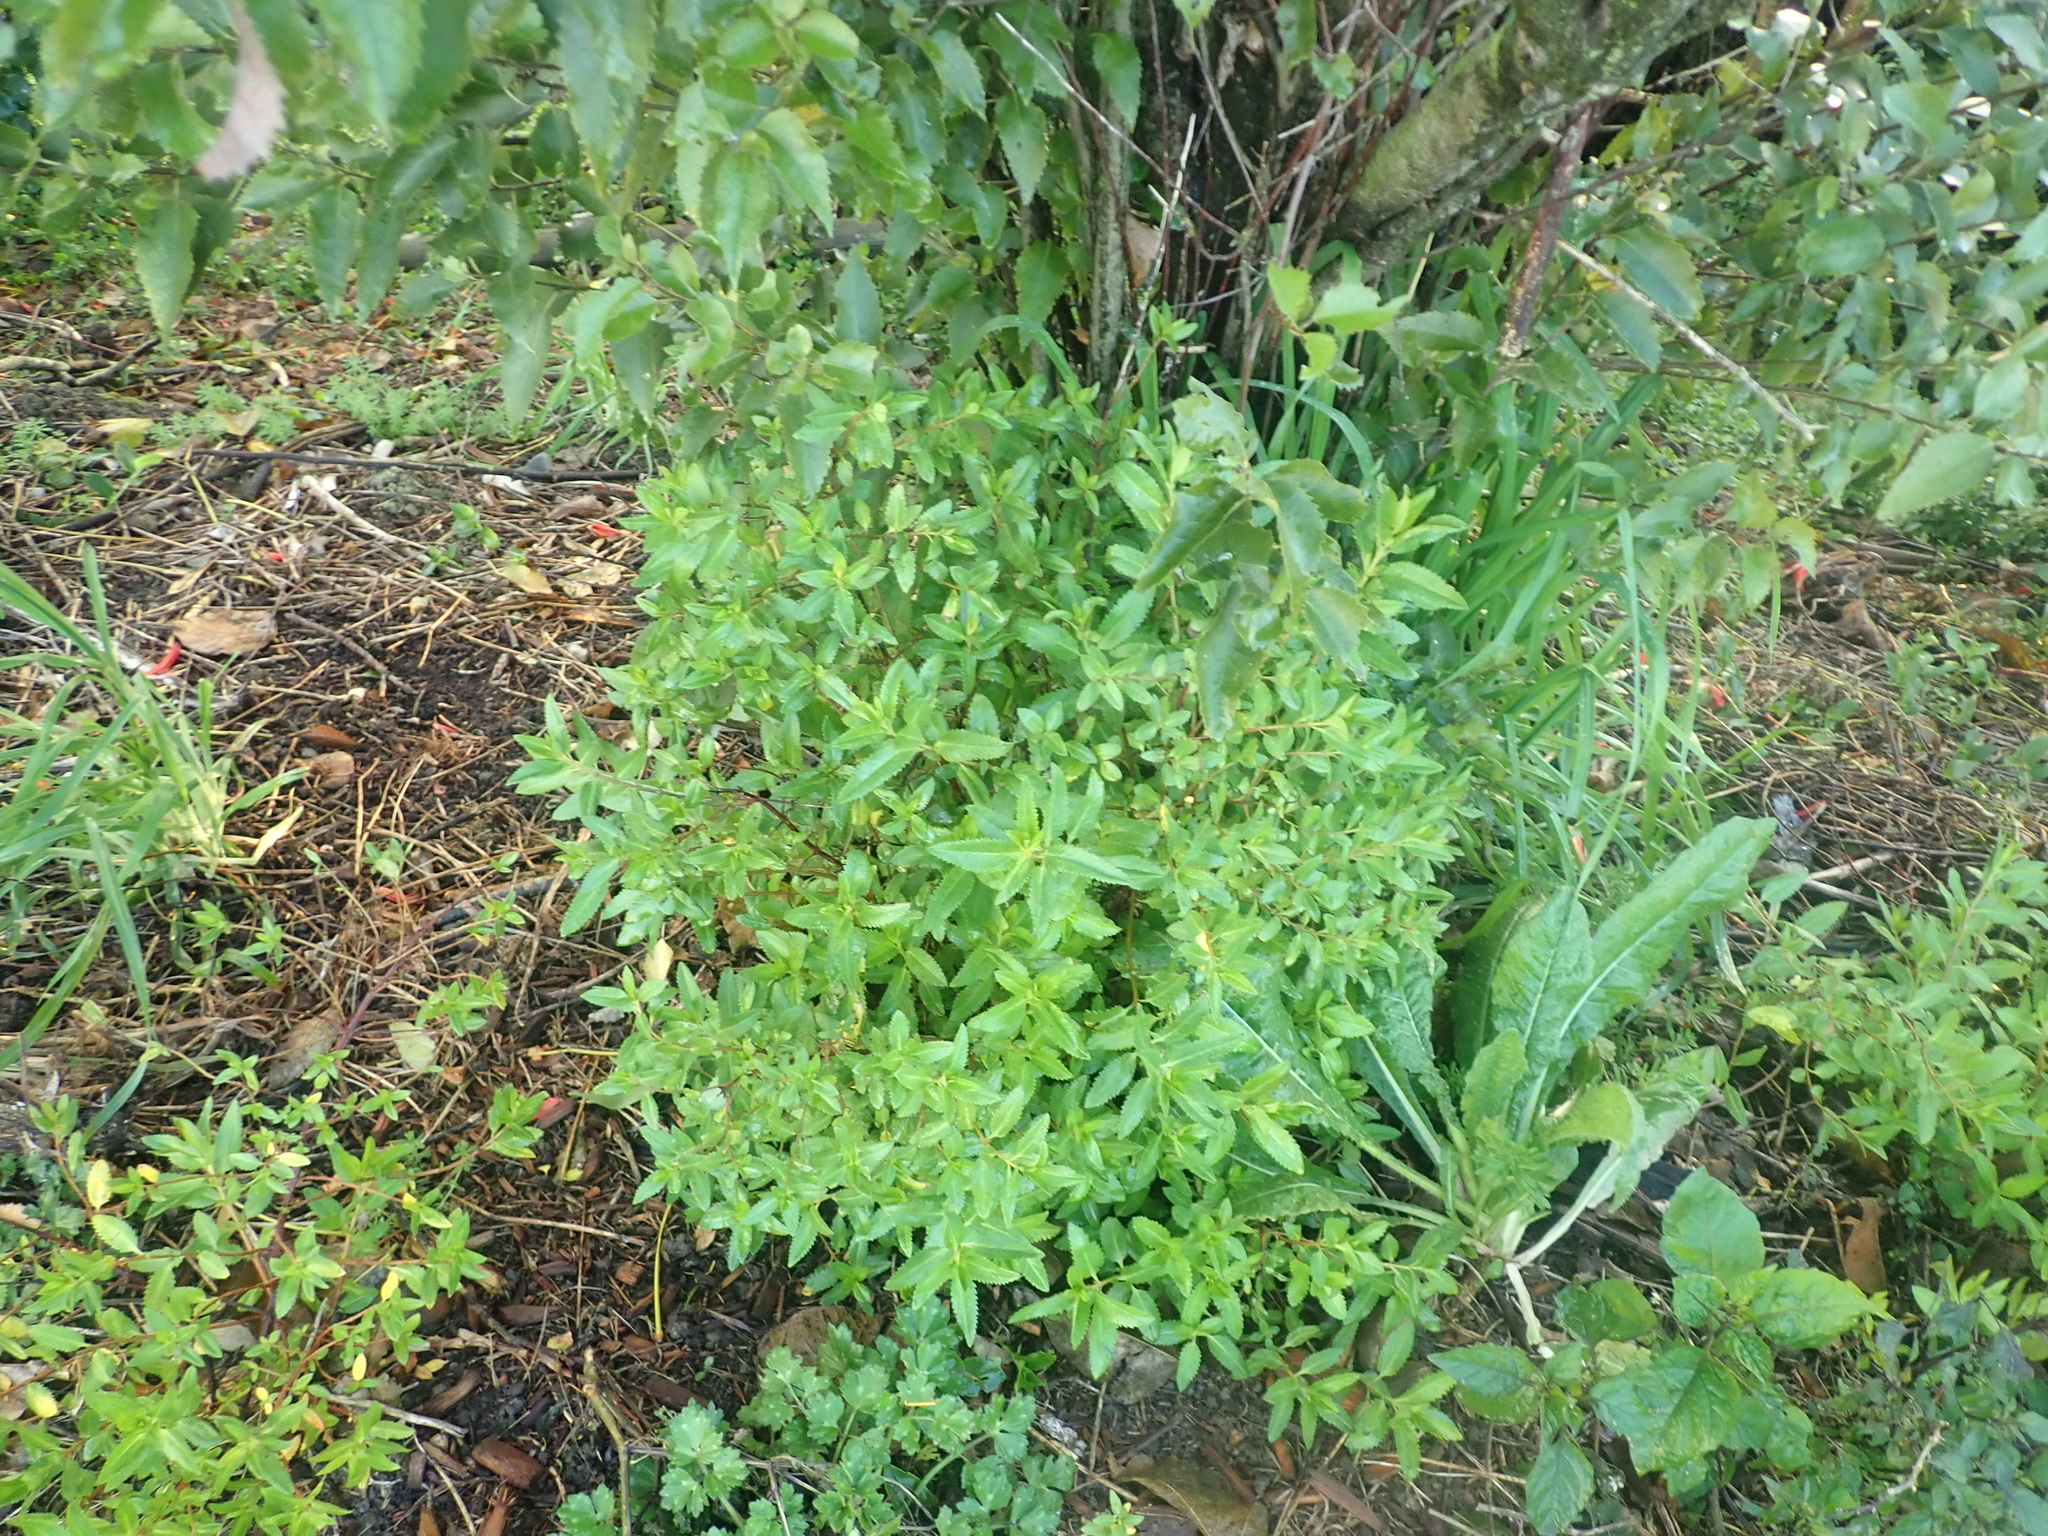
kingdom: Plantae
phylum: Tracheophyta
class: Magnoliopsida
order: Saxifragales
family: Haloragaceae
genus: Haloragis
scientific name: Haloragis erecta
